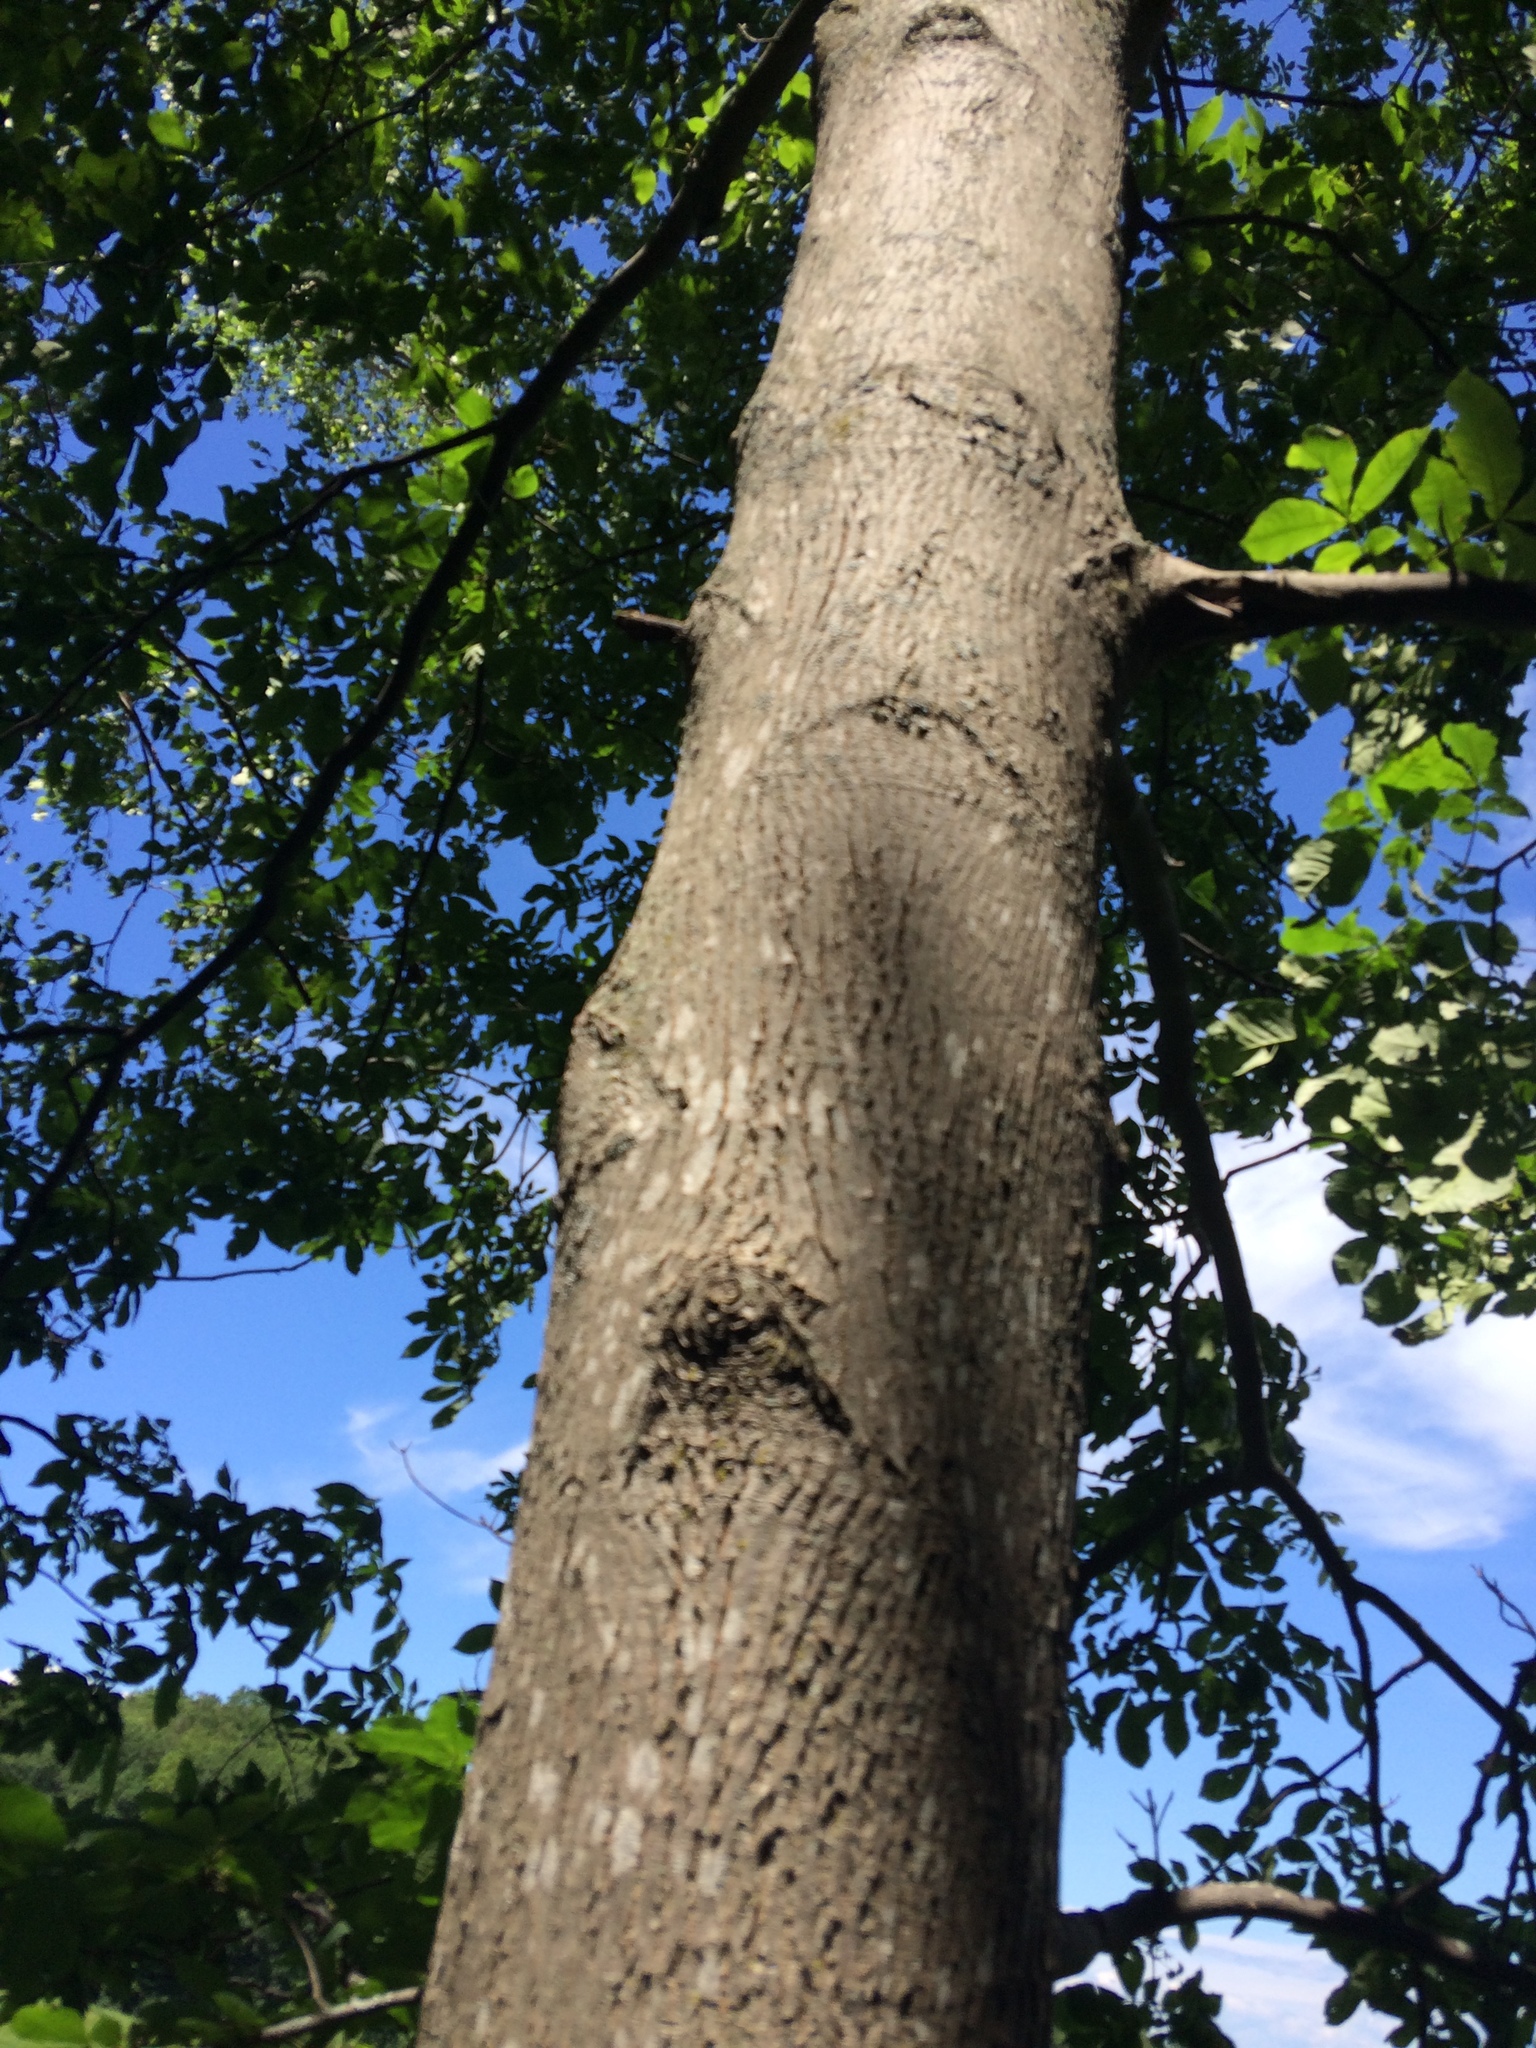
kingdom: Plantae
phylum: Tracheophyta
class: Magnoliopsida
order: Fagales
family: Juglandaceae
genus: Carya
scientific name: Carya cordiformis
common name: Bitternut hickory
